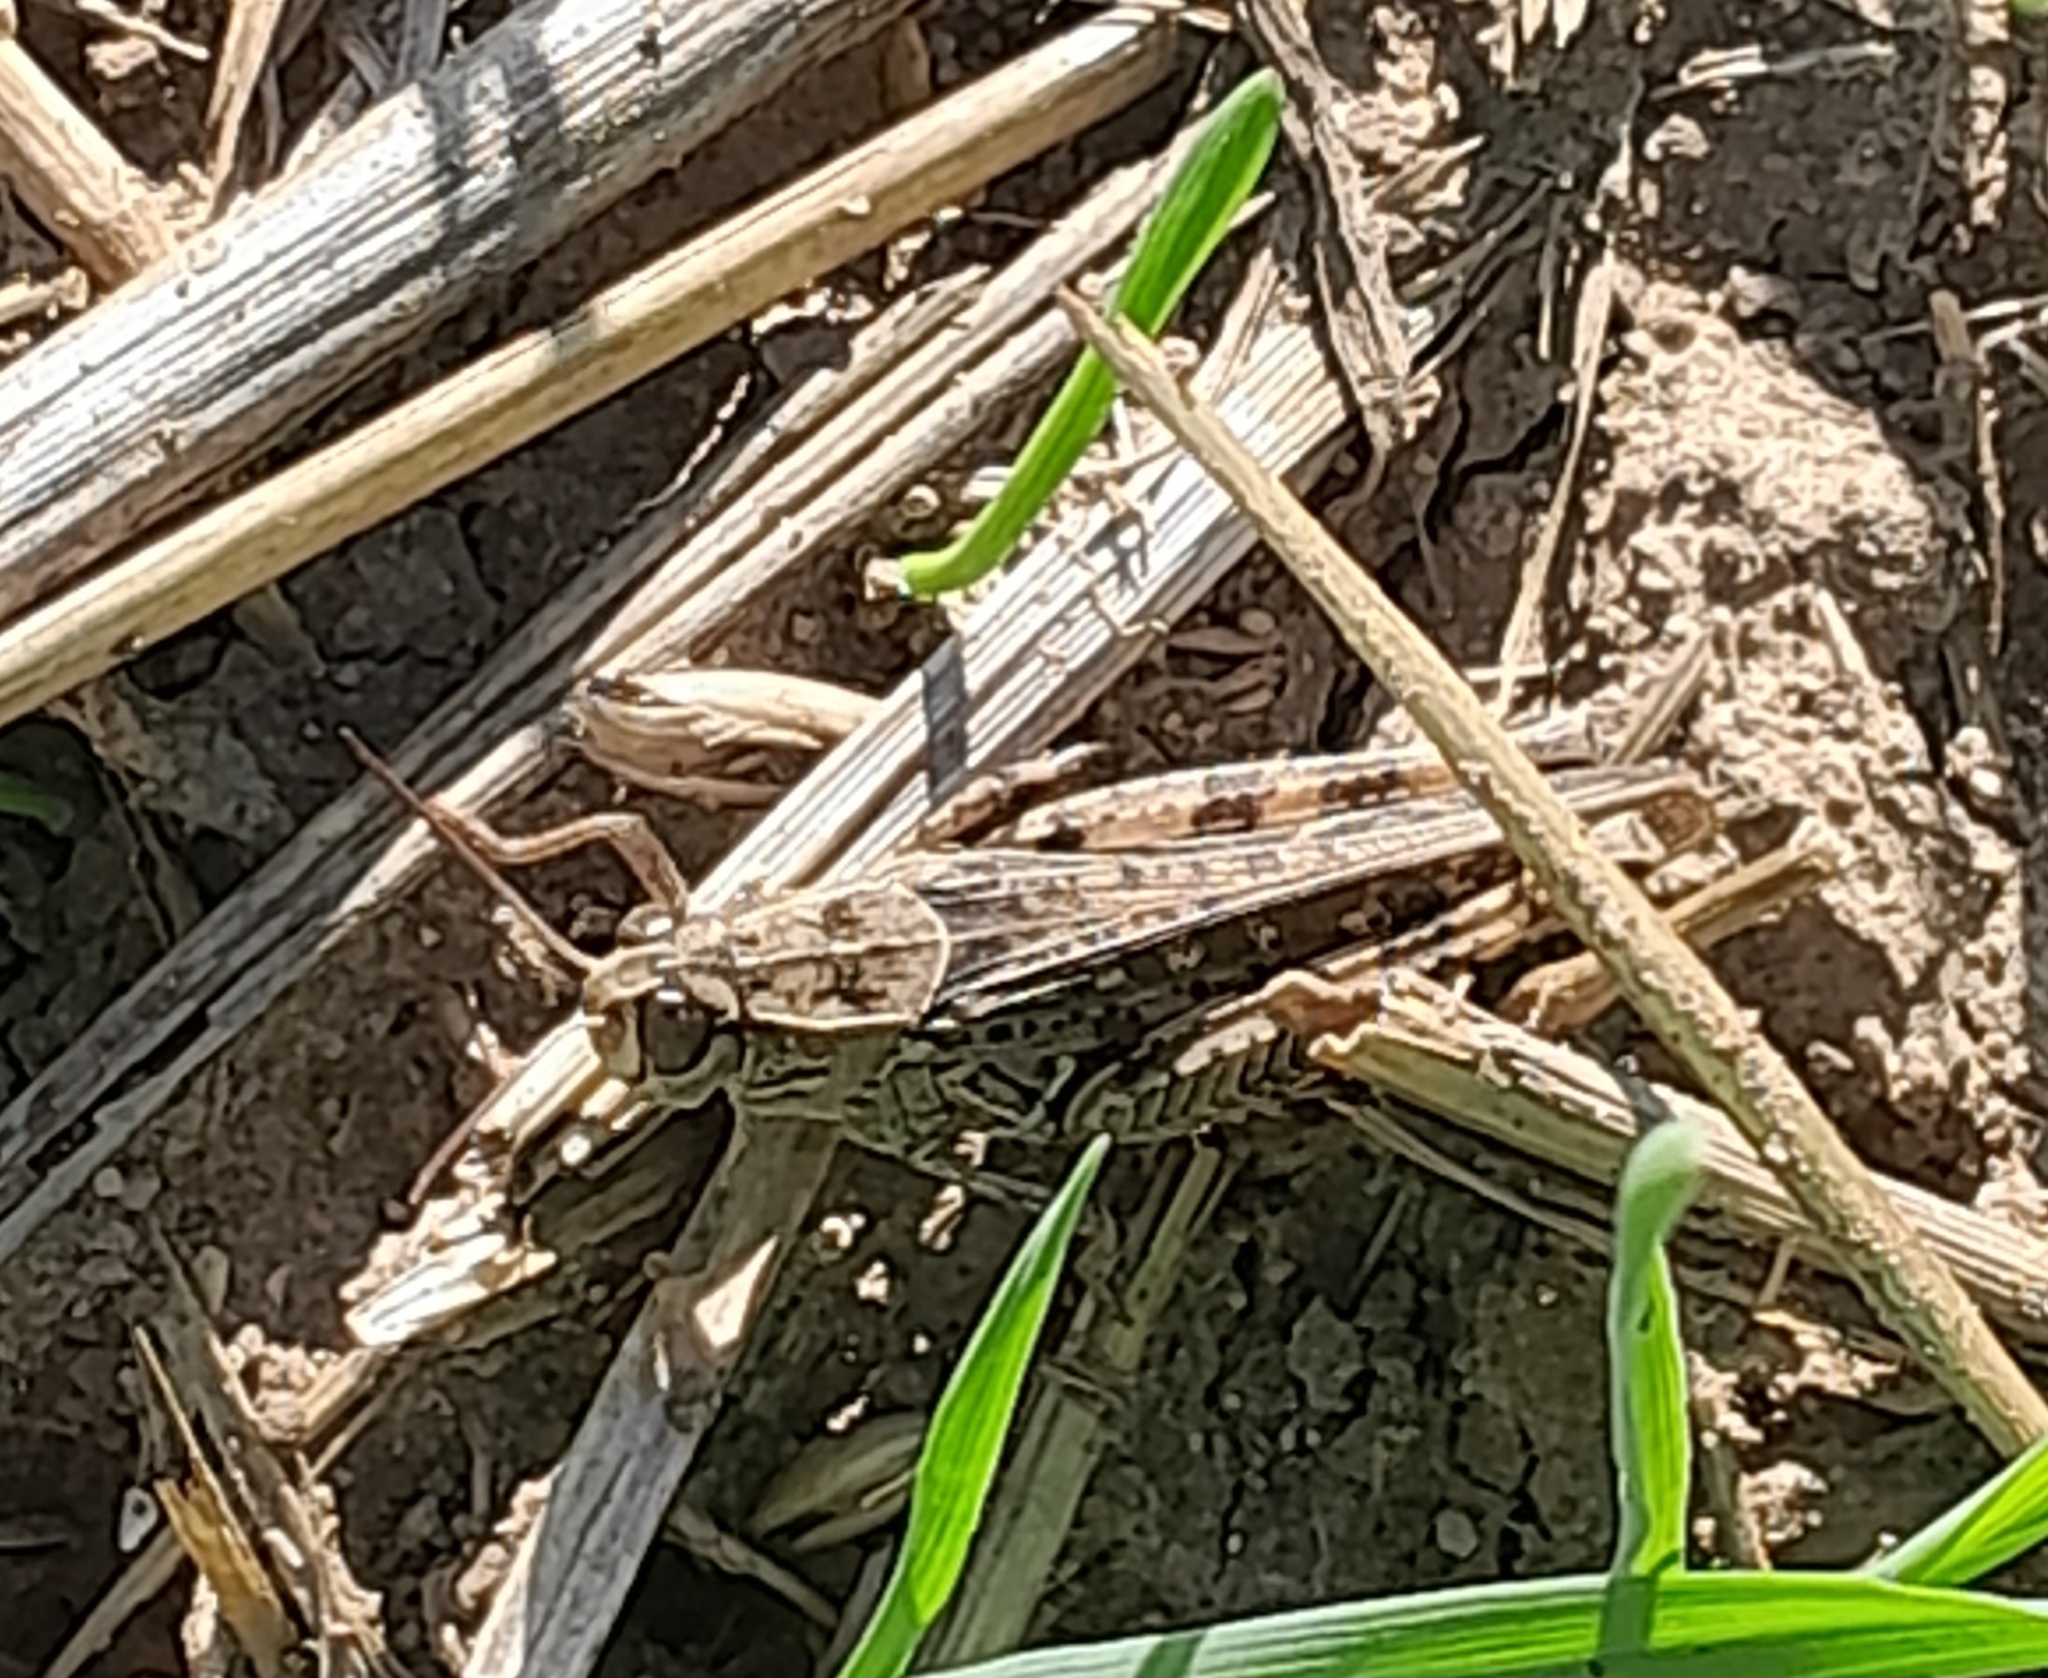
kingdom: Animalia
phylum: Arthropoda
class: Insecta
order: Orthoptera
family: Acrididae
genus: Calliptamus
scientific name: Calliptamus italicus
